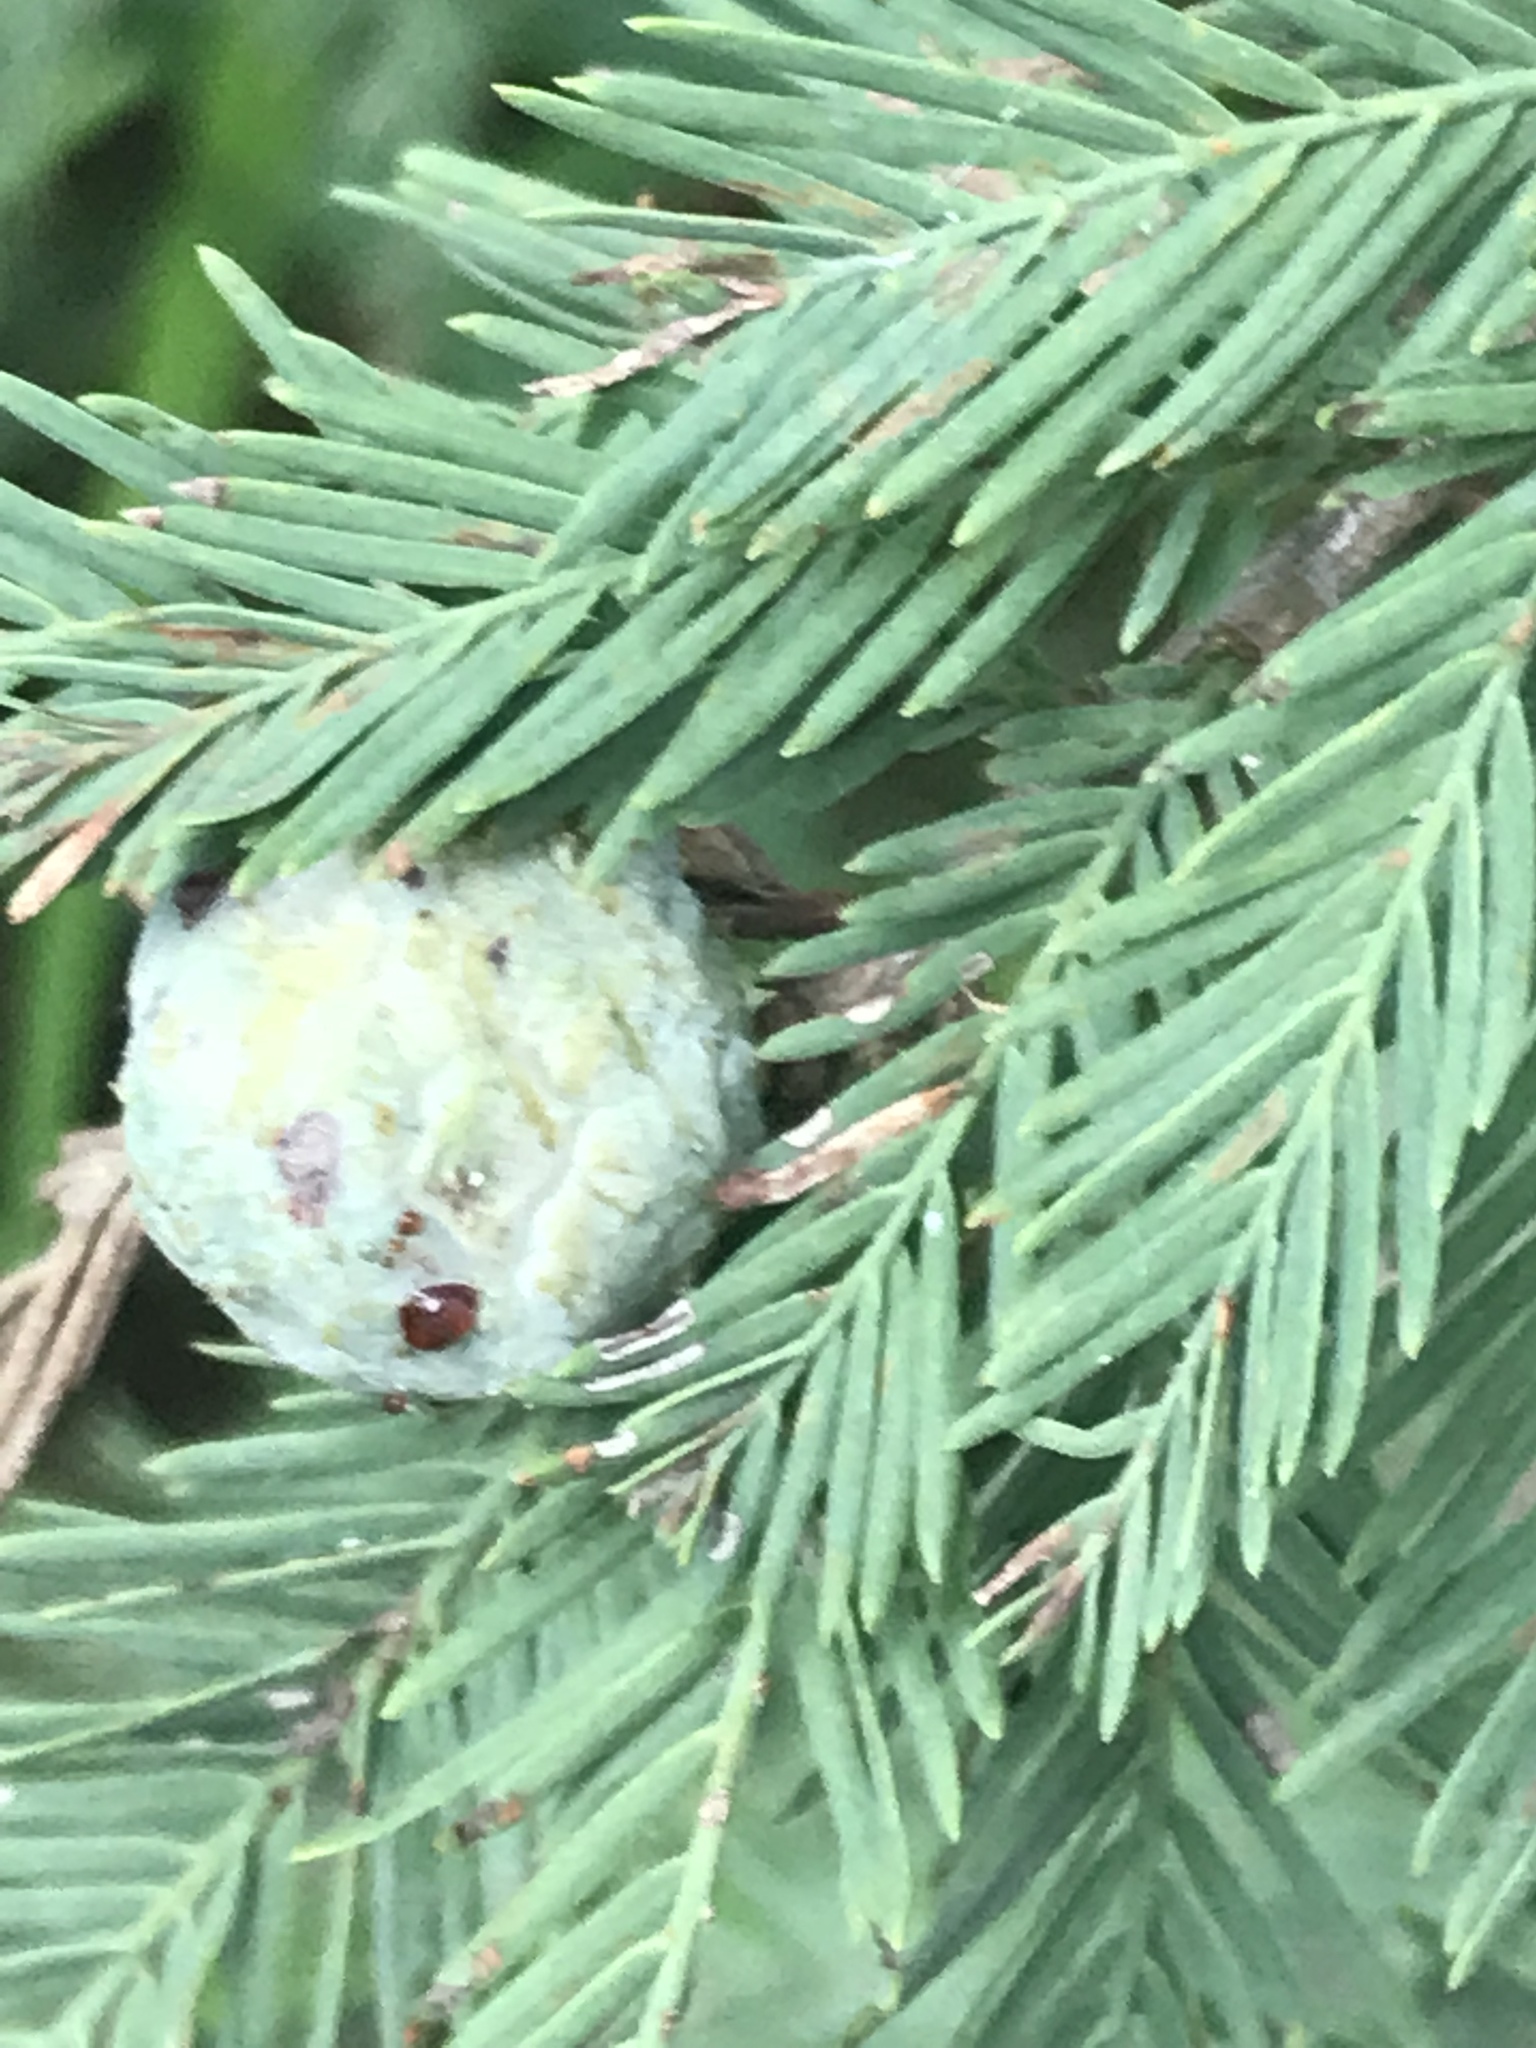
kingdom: Plantae
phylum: Tracheophyta
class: Pinopsida
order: Pinales
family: Cupressaceae
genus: Taxodium
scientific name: Taxodium mucronatum
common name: Montezume bald cypress
